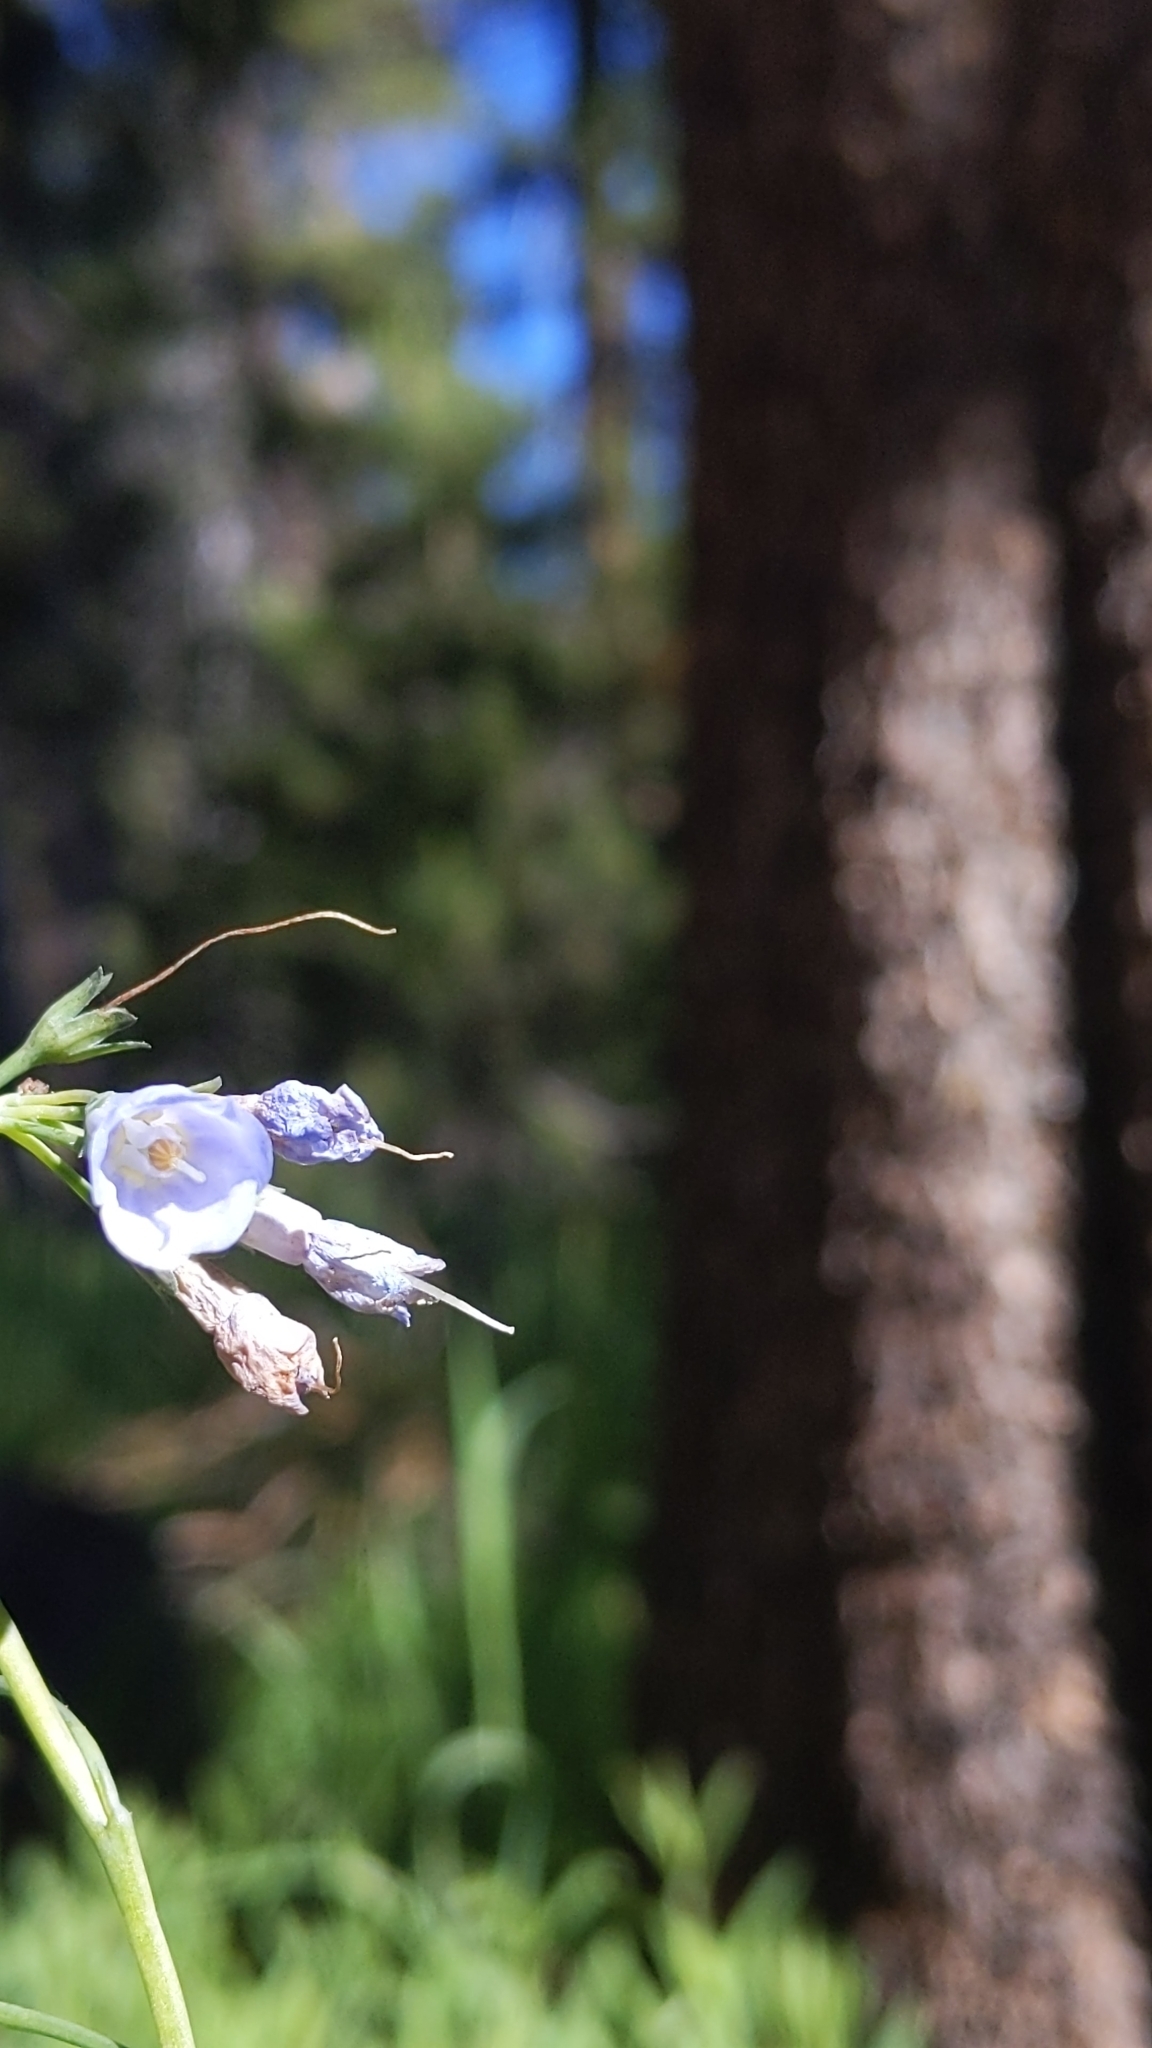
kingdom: Plantae
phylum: Tracheophyta
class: Magnoliopsida
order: Boraginales
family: Boraginaceae
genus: Mertensia
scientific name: Mertensia ciliata
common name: Tall chiming-bells
